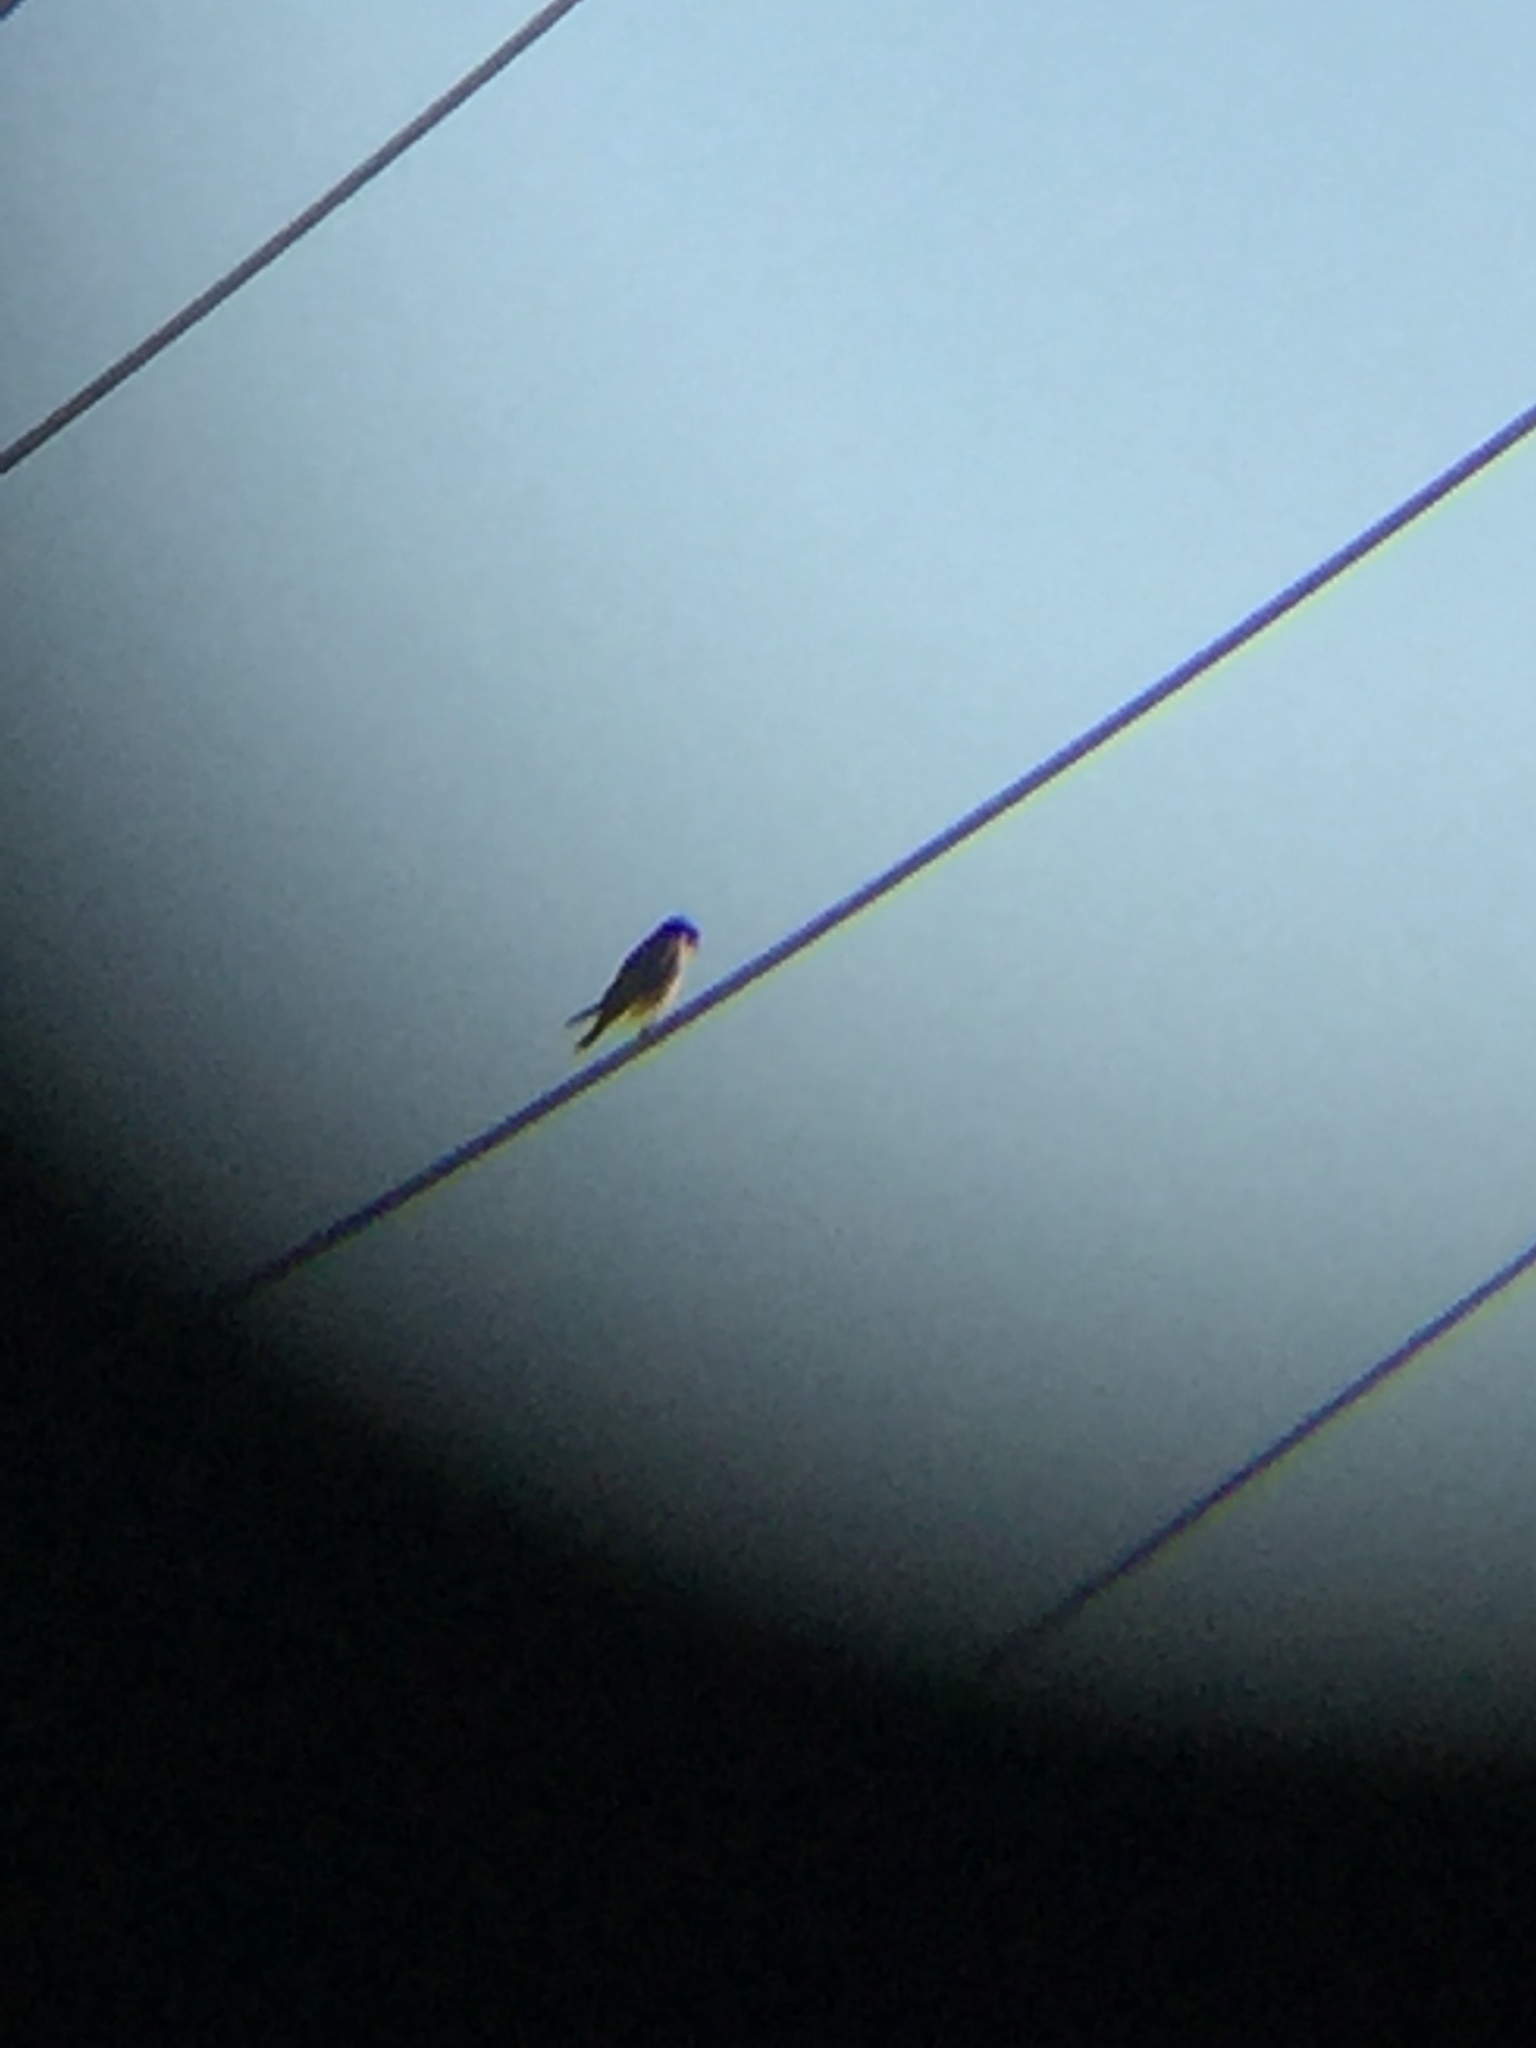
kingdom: Animalia
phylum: Chordata
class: Aves
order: Falconiformes
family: Falconidae
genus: Falco
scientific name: Falco sparverius
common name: American kestrel
